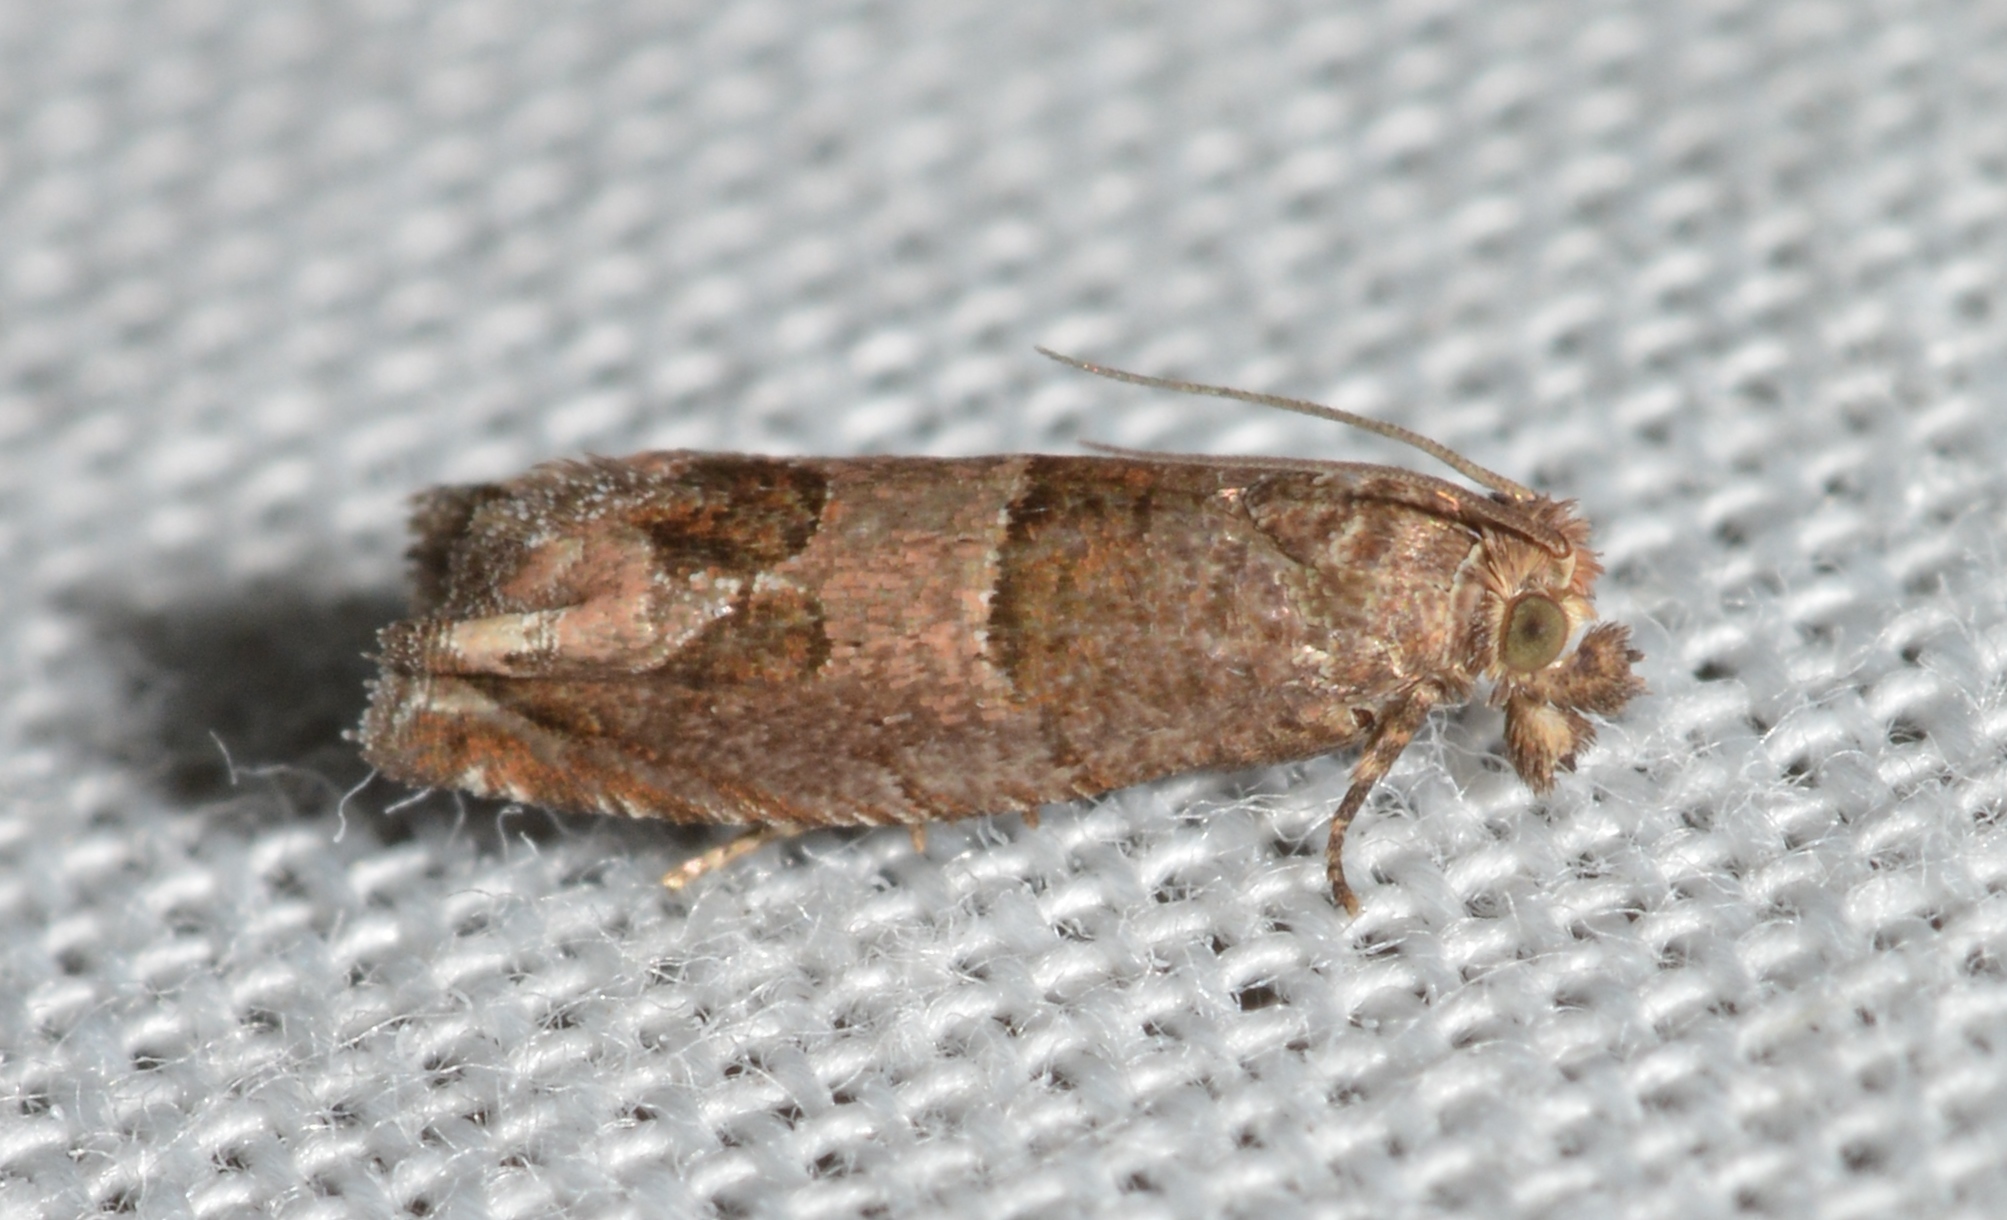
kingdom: Animalia
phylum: Arthropoda
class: Insecta
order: Lepidoptera
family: Tortricidae
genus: Sonia
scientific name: Sonia paraplesiana
